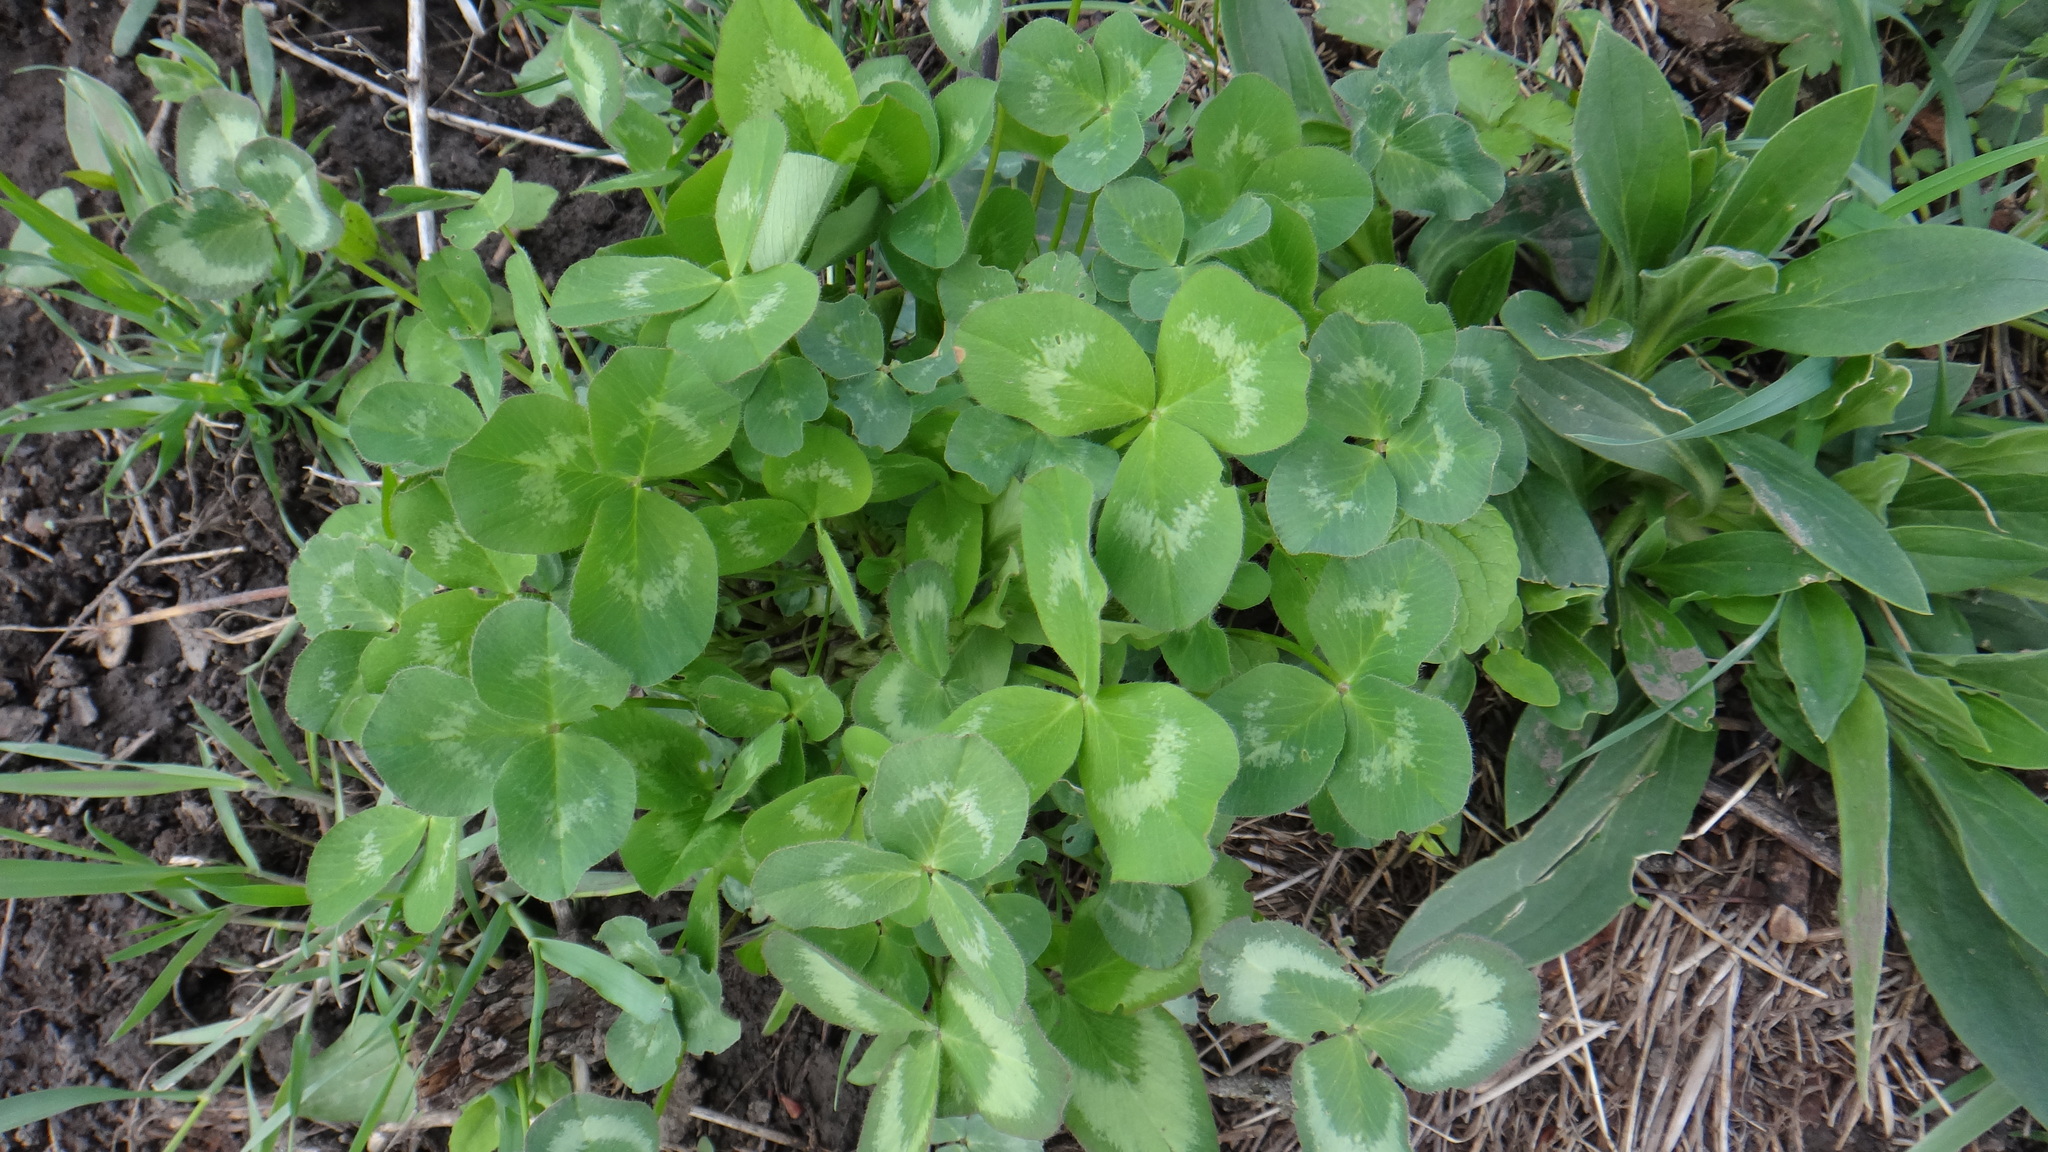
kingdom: Plantae
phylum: Tracheophyta
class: Magnoliopsida
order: Fabales
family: Fabaceae
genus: Trifolium
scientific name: Trifolium pratense
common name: Red clover
